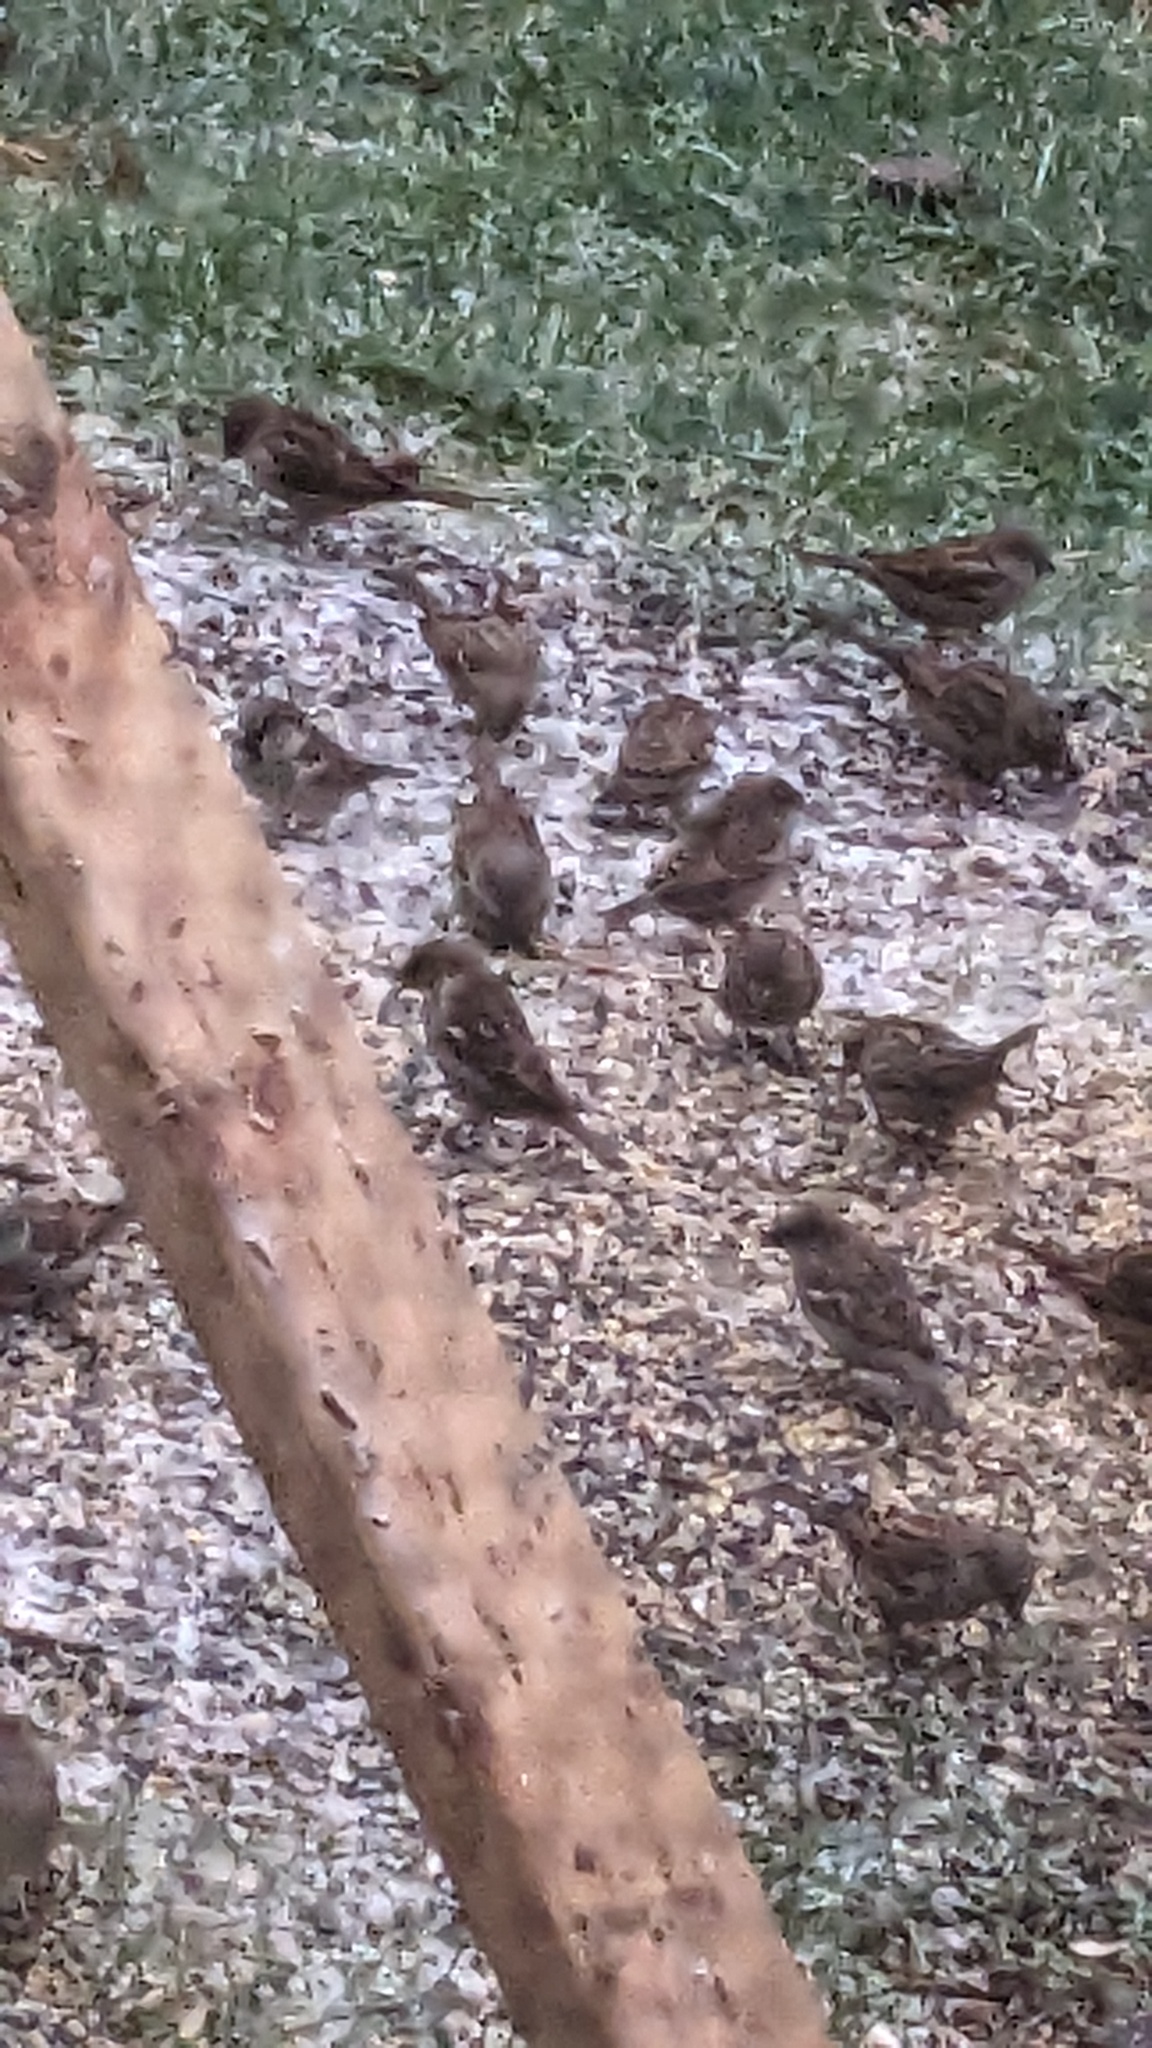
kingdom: Animalia
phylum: Chordata
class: Aves
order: Passeriformes
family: Passeridae
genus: Passer
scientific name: Passer domesticus
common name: House sparrow
